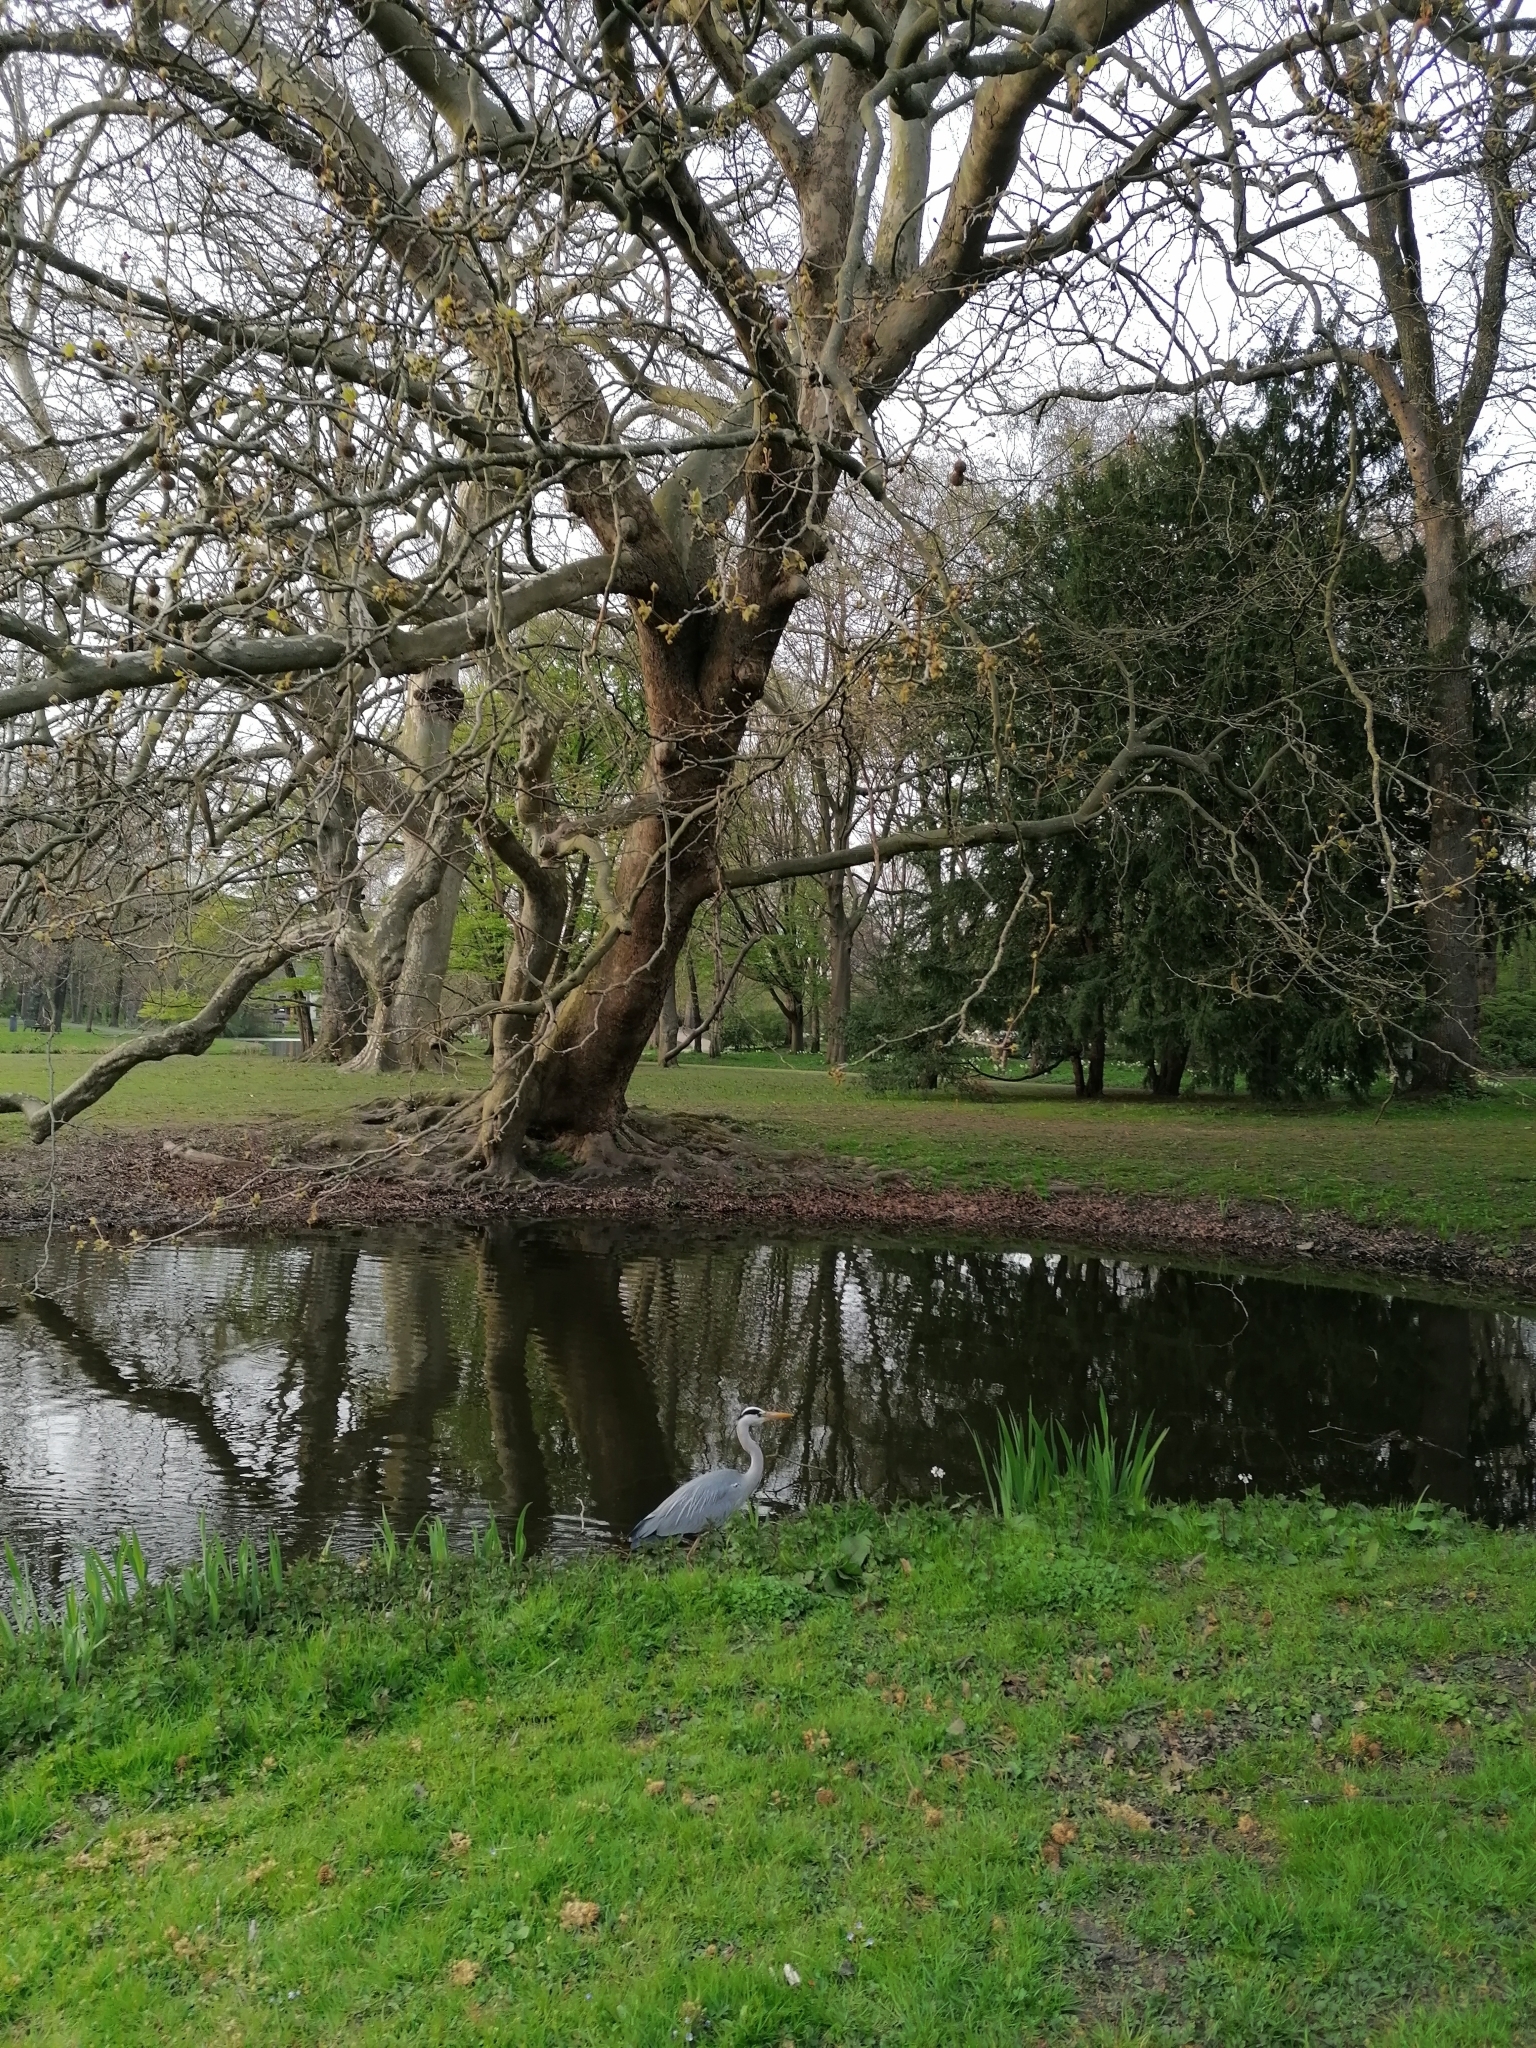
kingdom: Animalia
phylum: Chordata
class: Aves
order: Pelecaniformes
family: Ardeidae
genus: Ardea
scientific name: Ardea cinerea
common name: Grey heron
